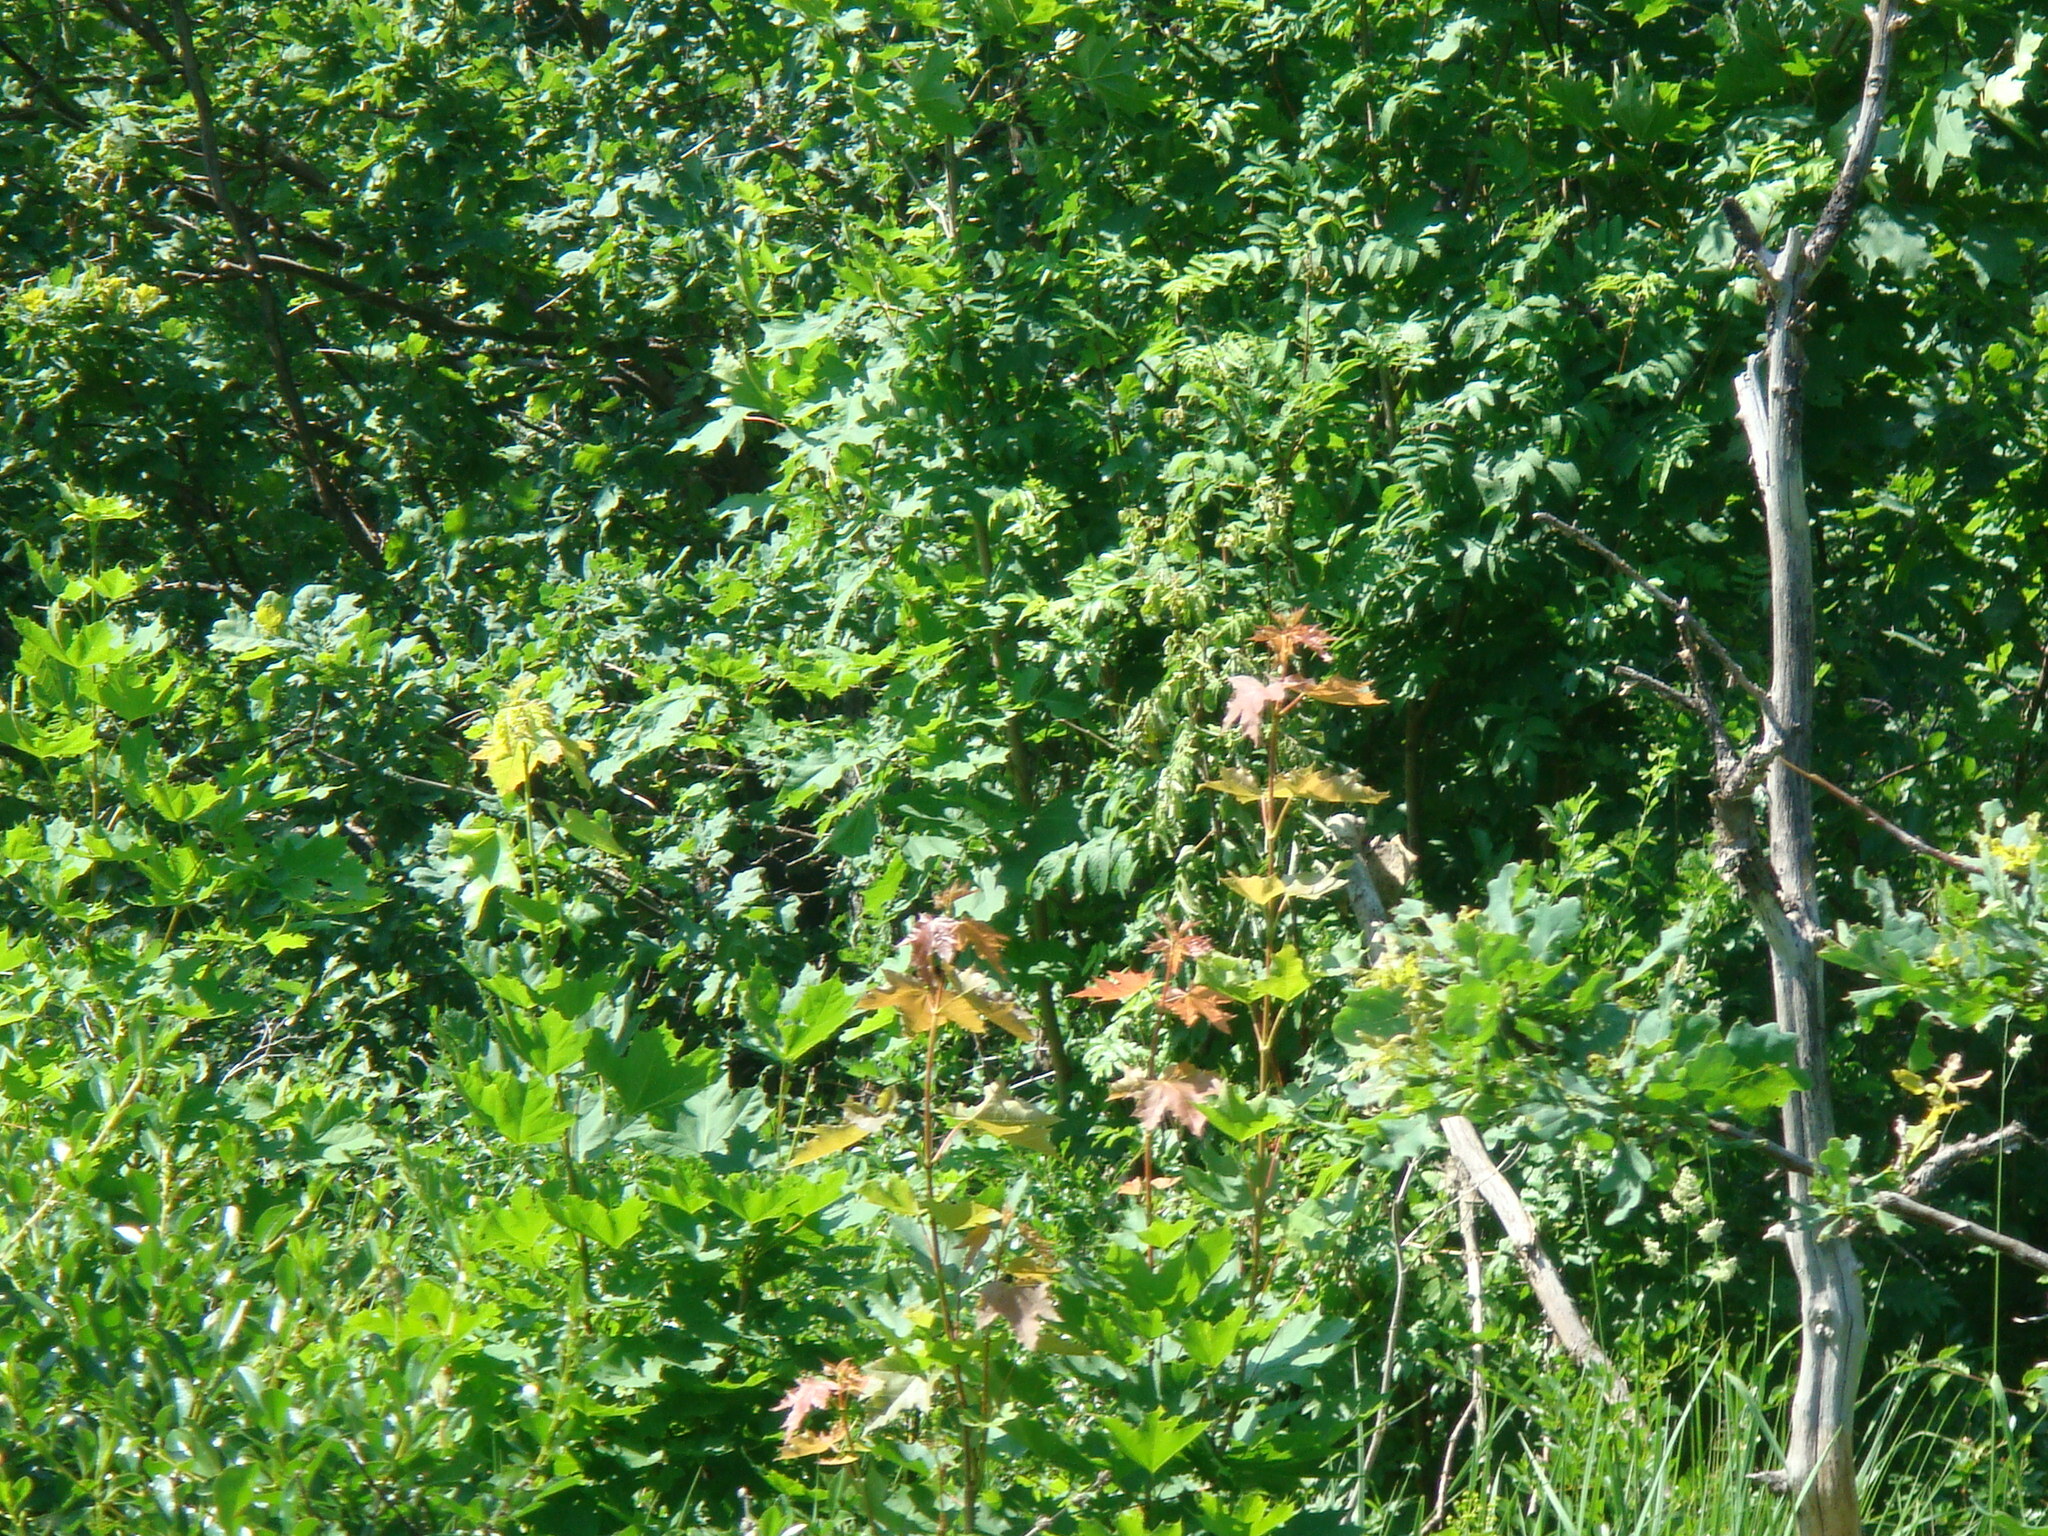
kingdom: Plantae
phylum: Tracheophyta
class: Magnoliopsida
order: Sapindales
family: Sapindaceae
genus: Acer
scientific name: Acer platanoides
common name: Norway maple
